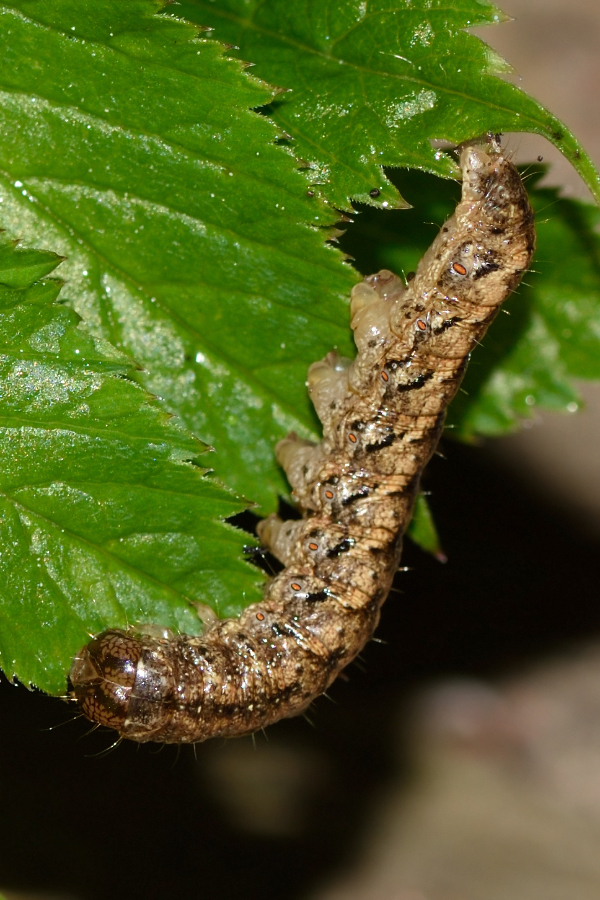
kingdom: Animalia
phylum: Arthropoda
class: Insecta
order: Lepidoptera
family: Noctuidae
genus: Polia
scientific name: Polia nebulosa
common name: Grey arches
